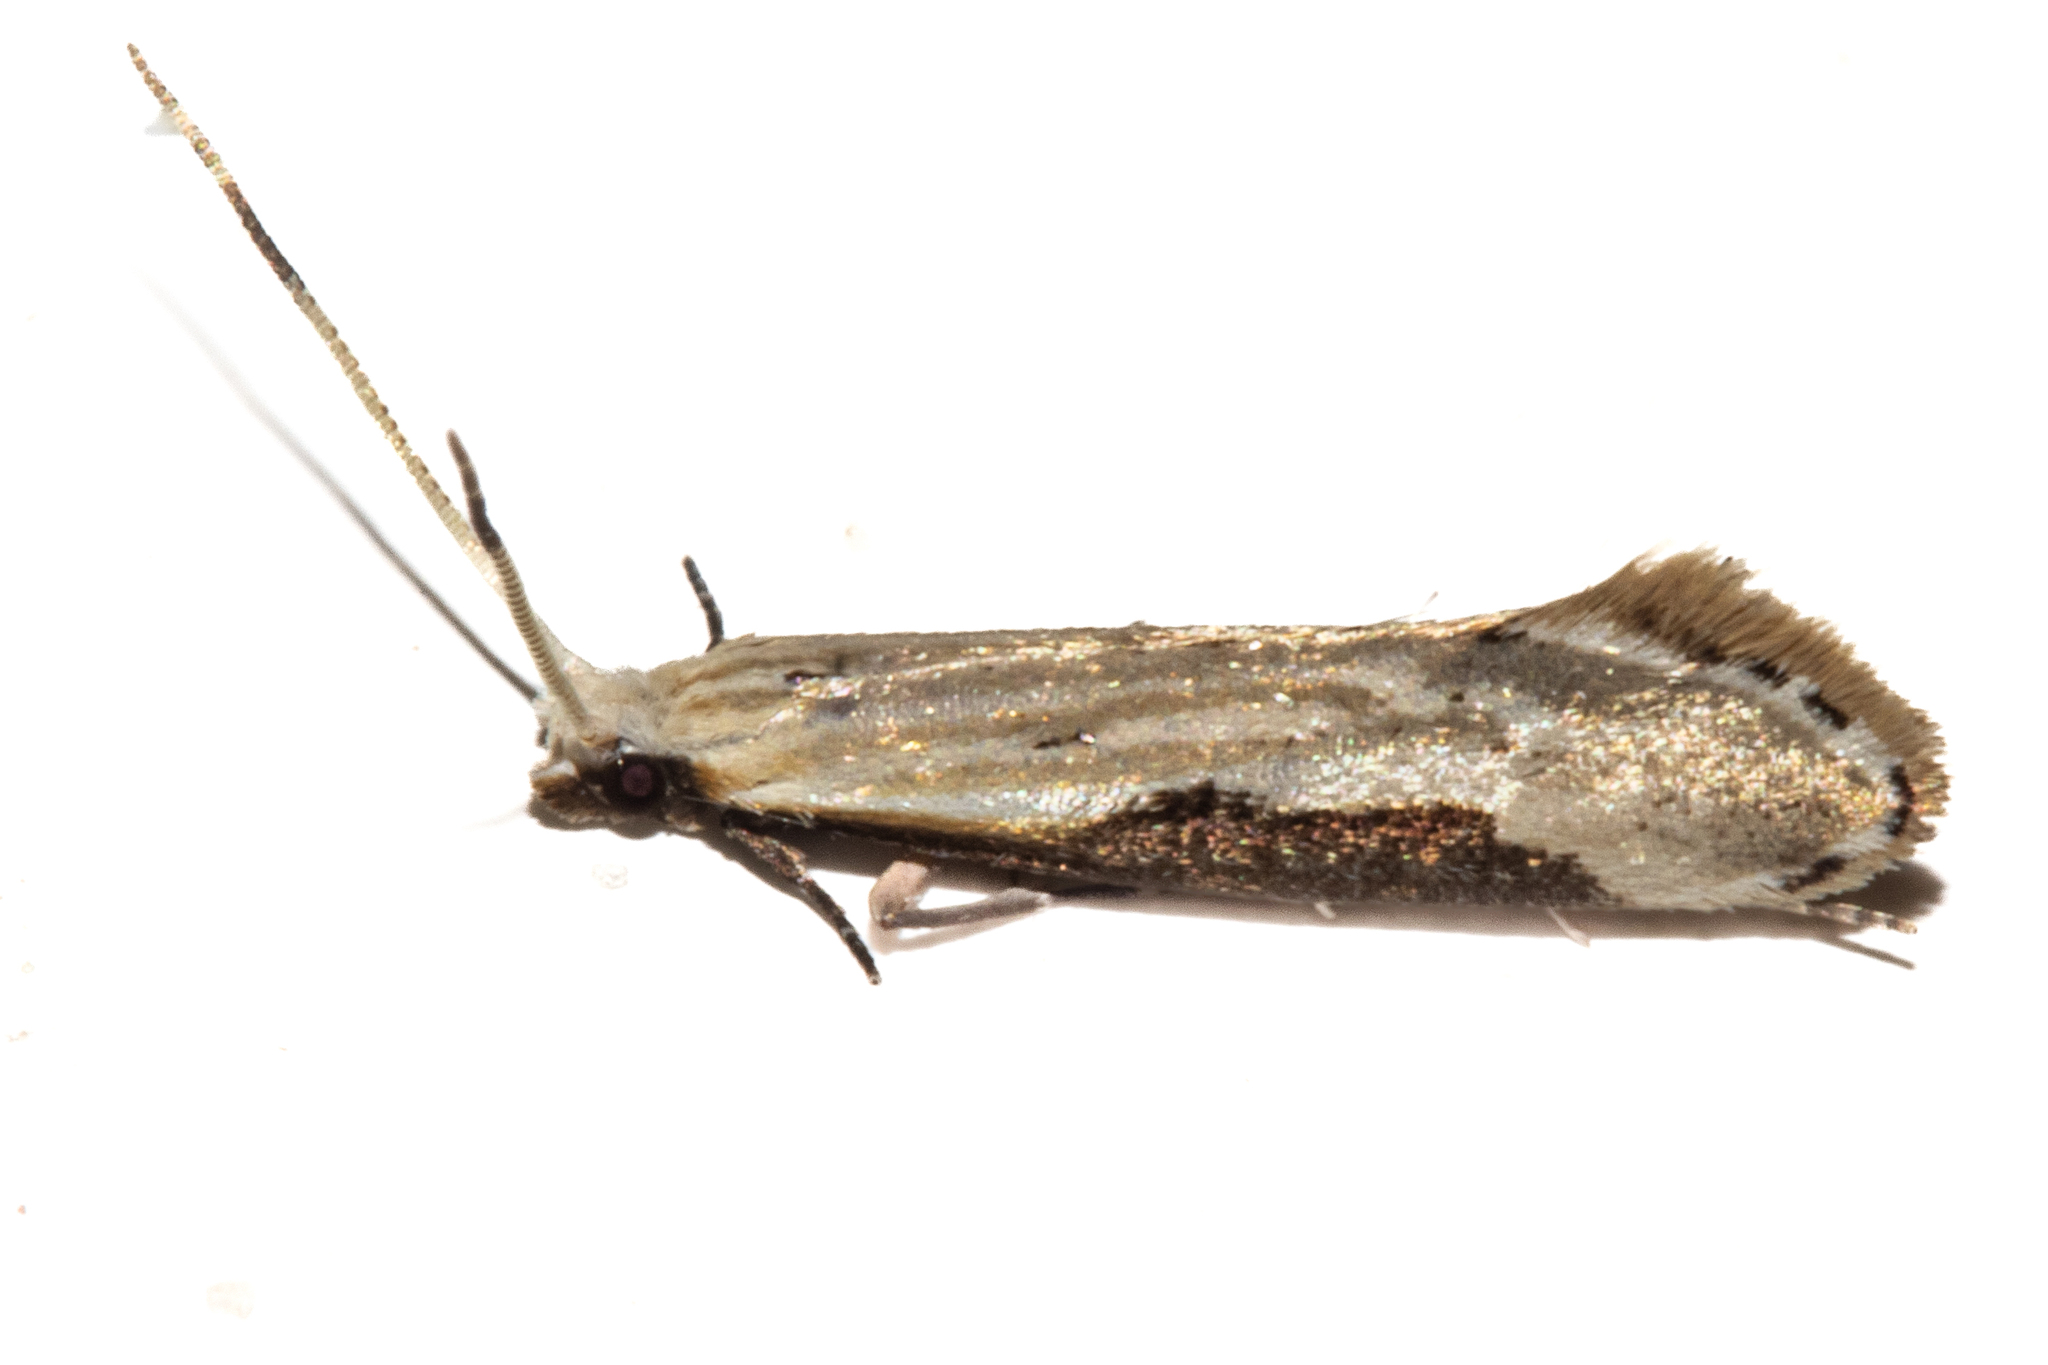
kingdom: Animalia
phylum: Arthropoda
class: Insecta
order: Lepidoptera
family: Tineidae
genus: Sagephora
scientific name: Sagephora phortegella
